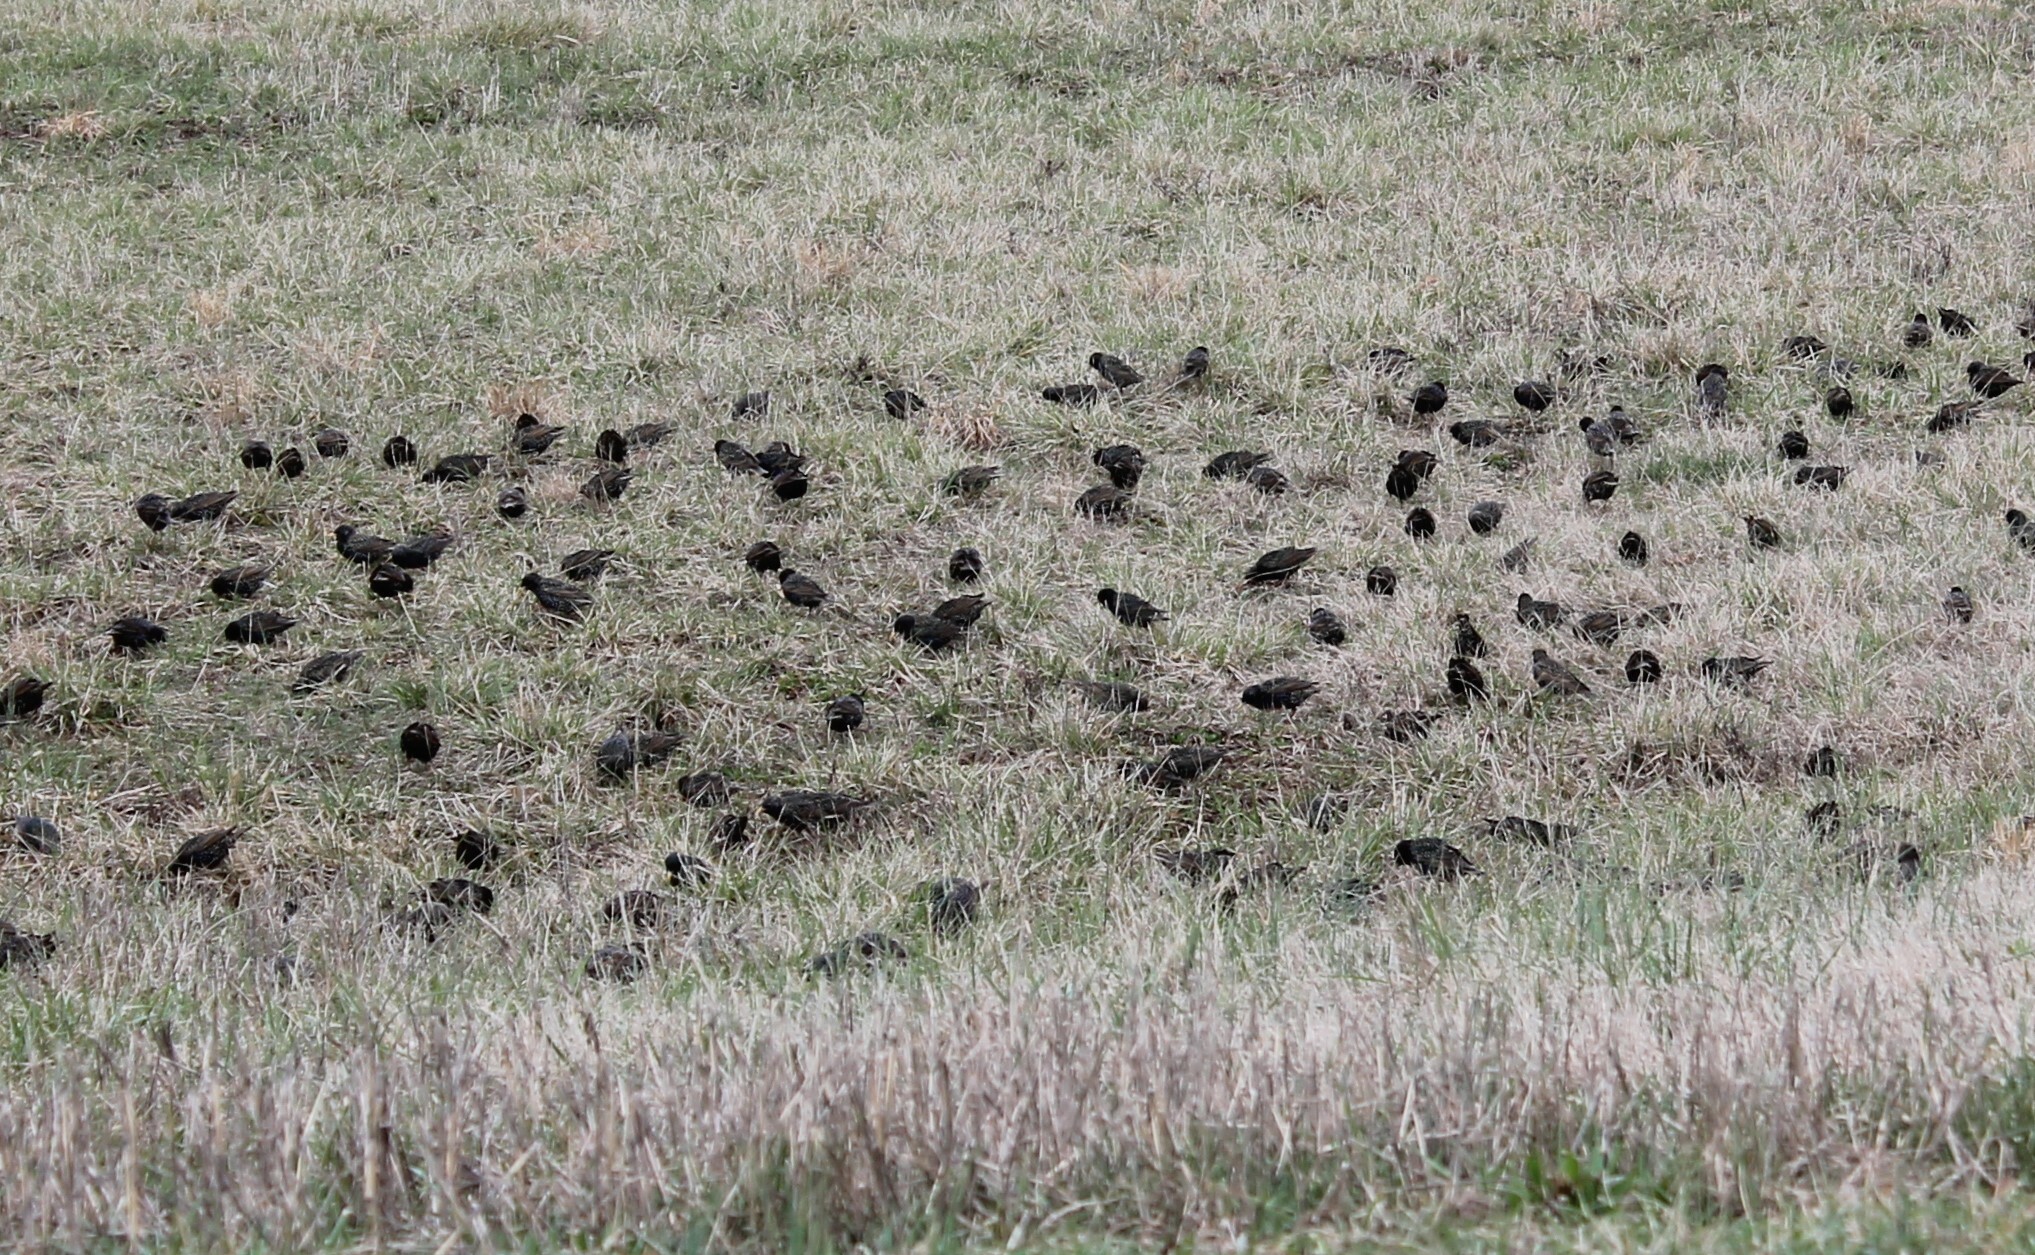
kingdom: Animalia
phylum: Chordata
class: Aves
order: Passeriformes
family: Sturnidae
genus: Sturnus
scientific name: Sturnus vulgaris
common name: Common starling
